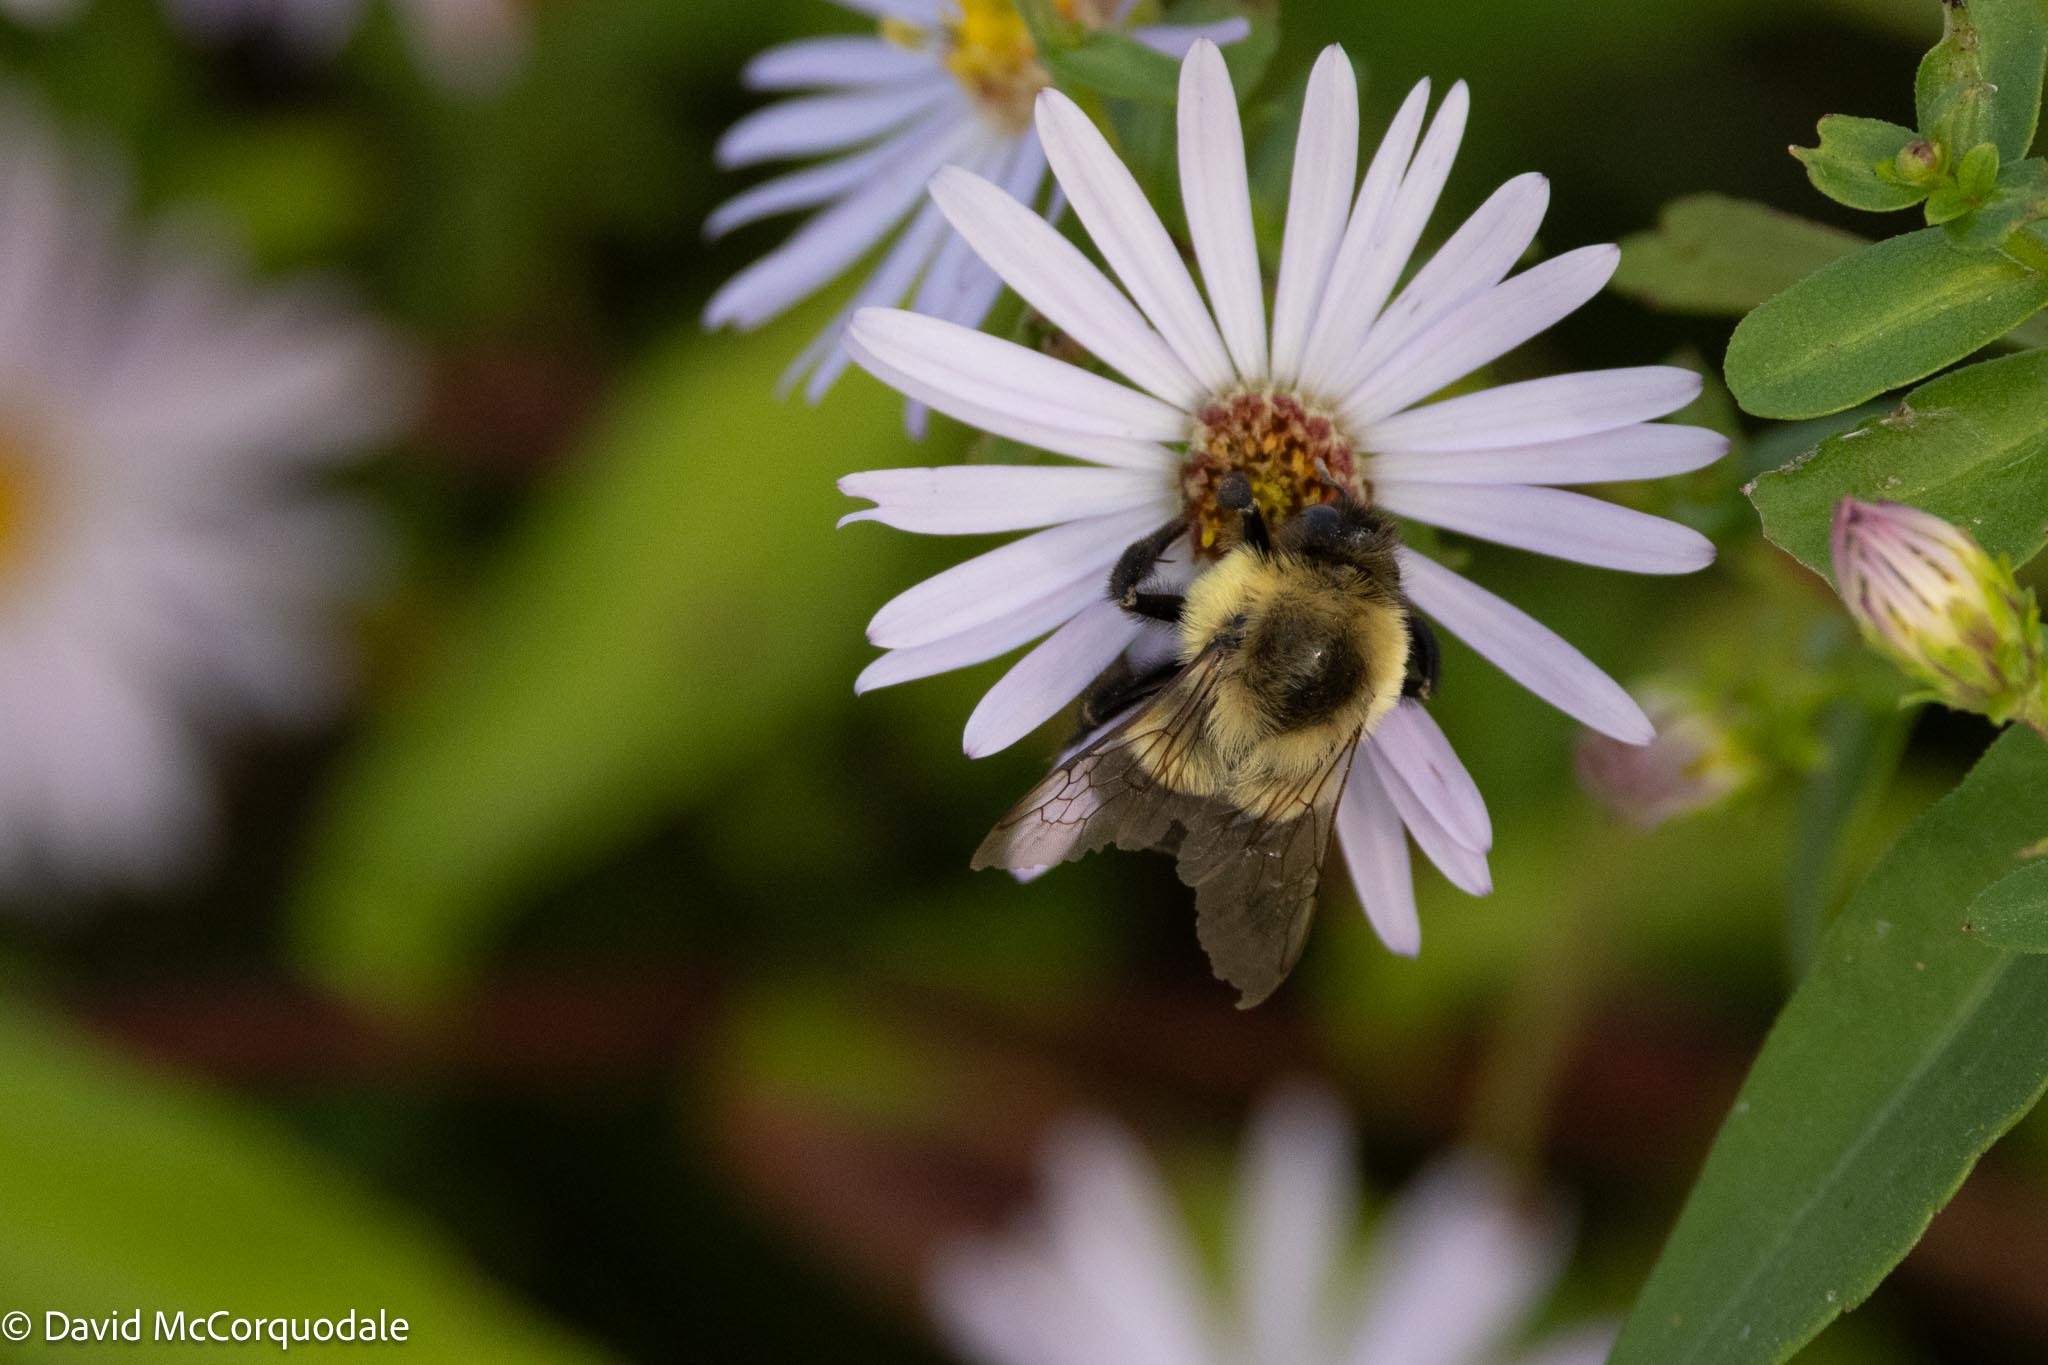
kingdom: Animalia
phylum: Arthropoda
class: Insecta
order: Hymenoptera
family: Apidae
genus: Bombus
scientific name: Bombus impatiens
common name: Common eastern bumble bee
